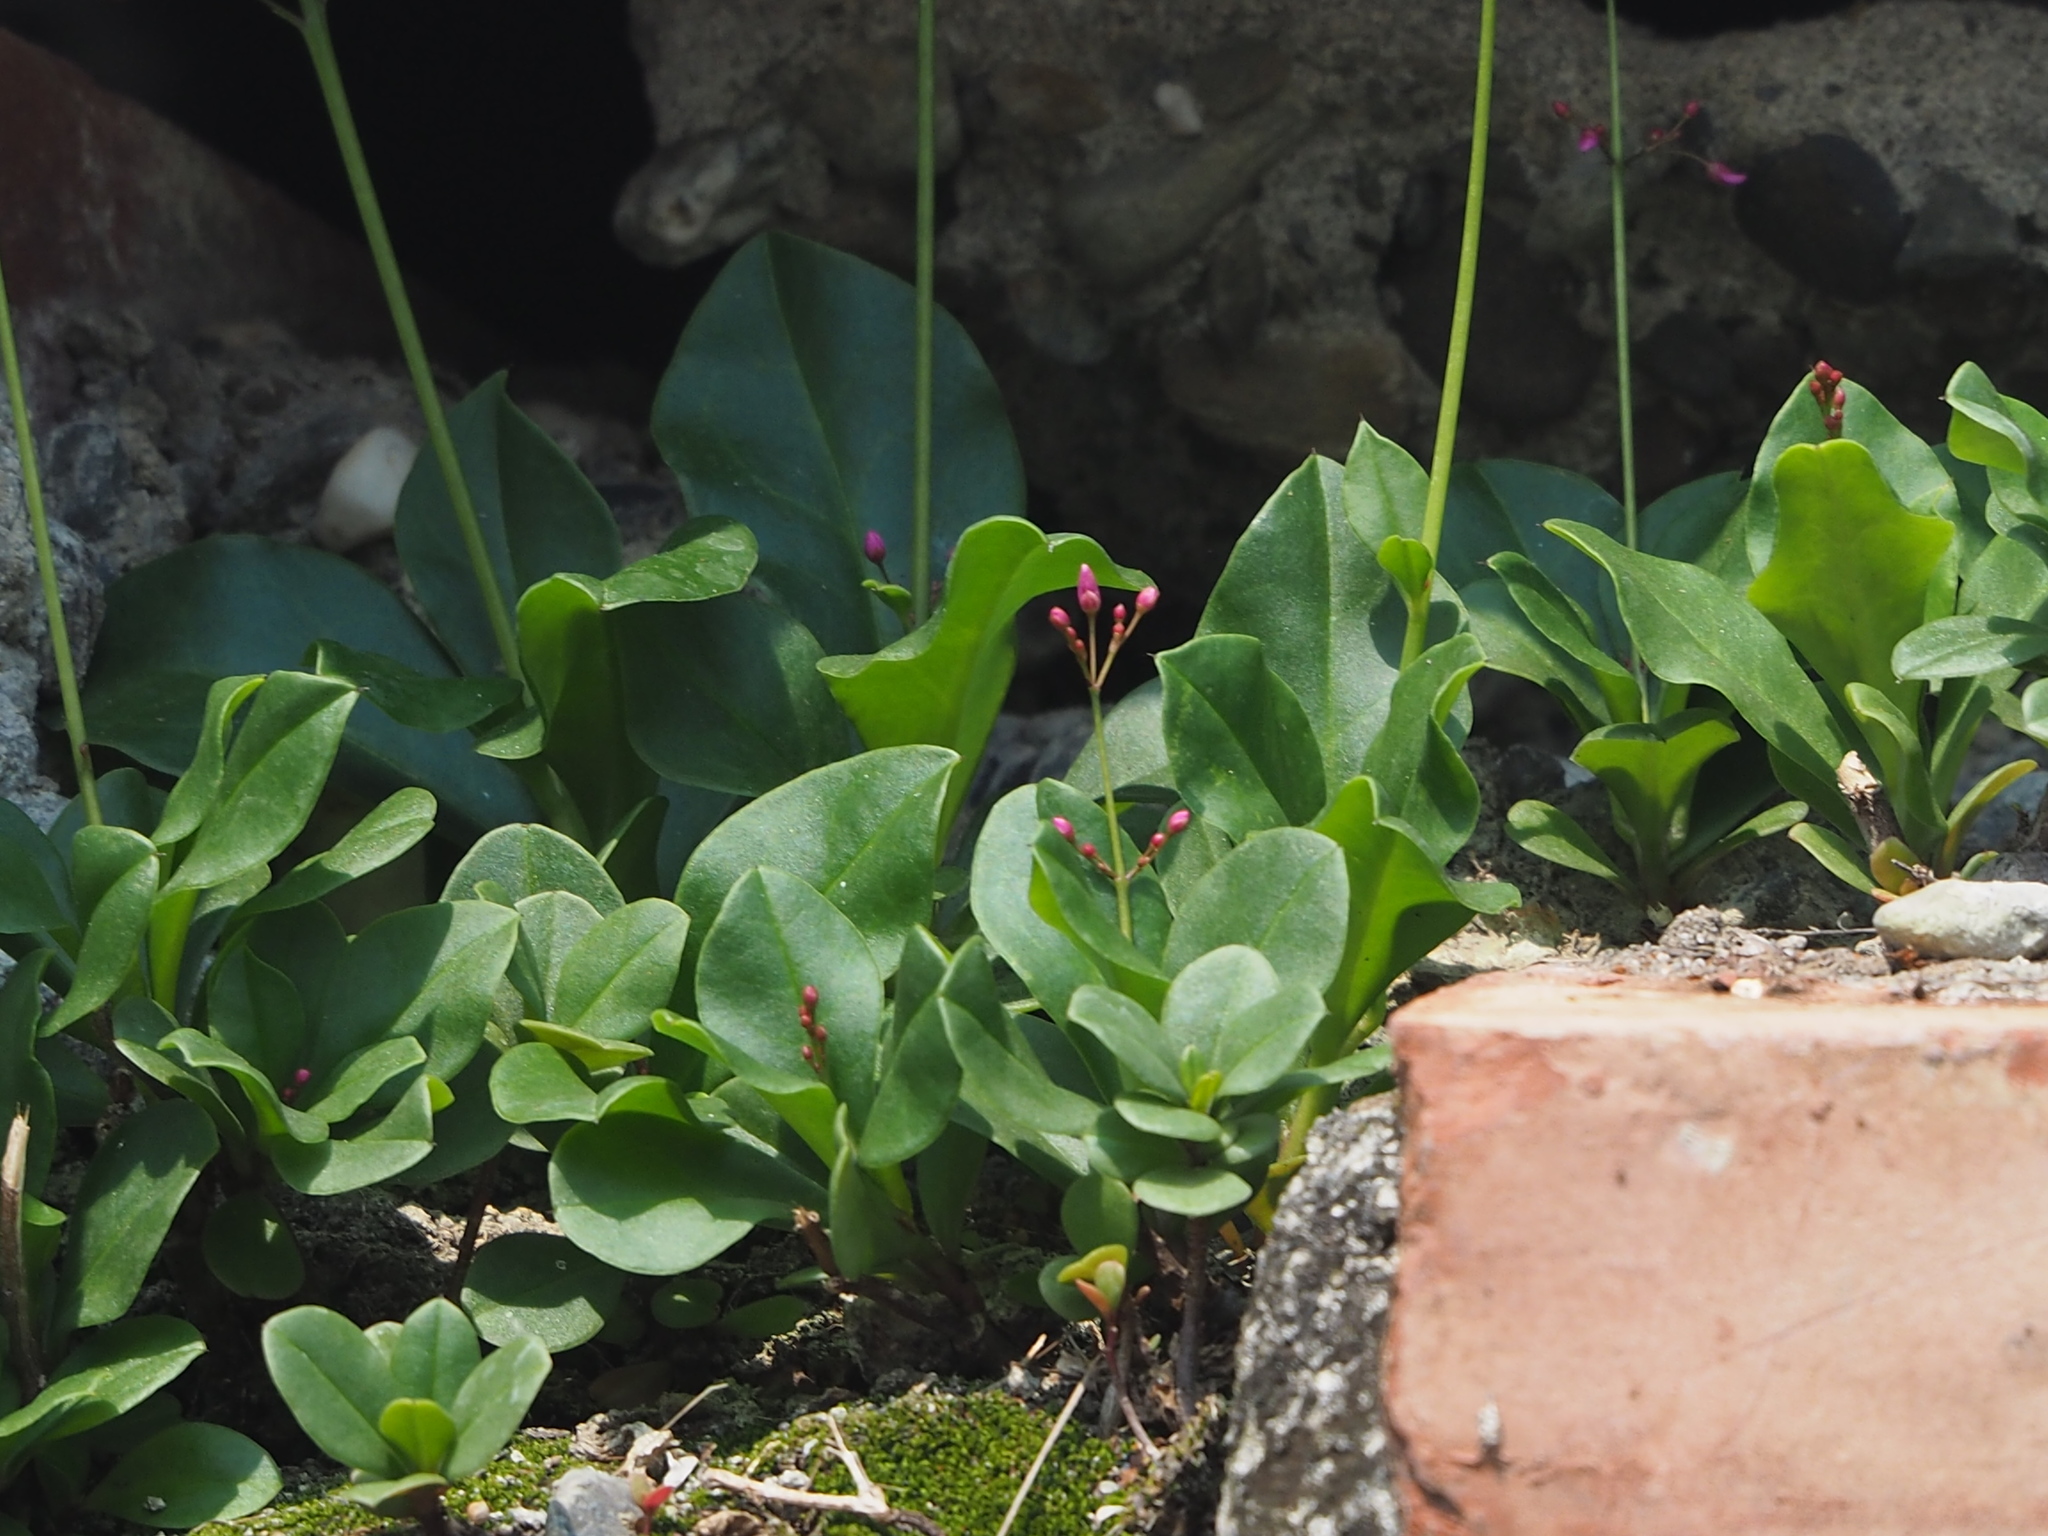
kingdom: Plantae
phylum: Tracheophyta
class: Magnoliopsida
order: Caryophyllales
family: Talinaceae
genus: Talinum
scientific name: Talinum paniculatum
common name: Jewels of opar
